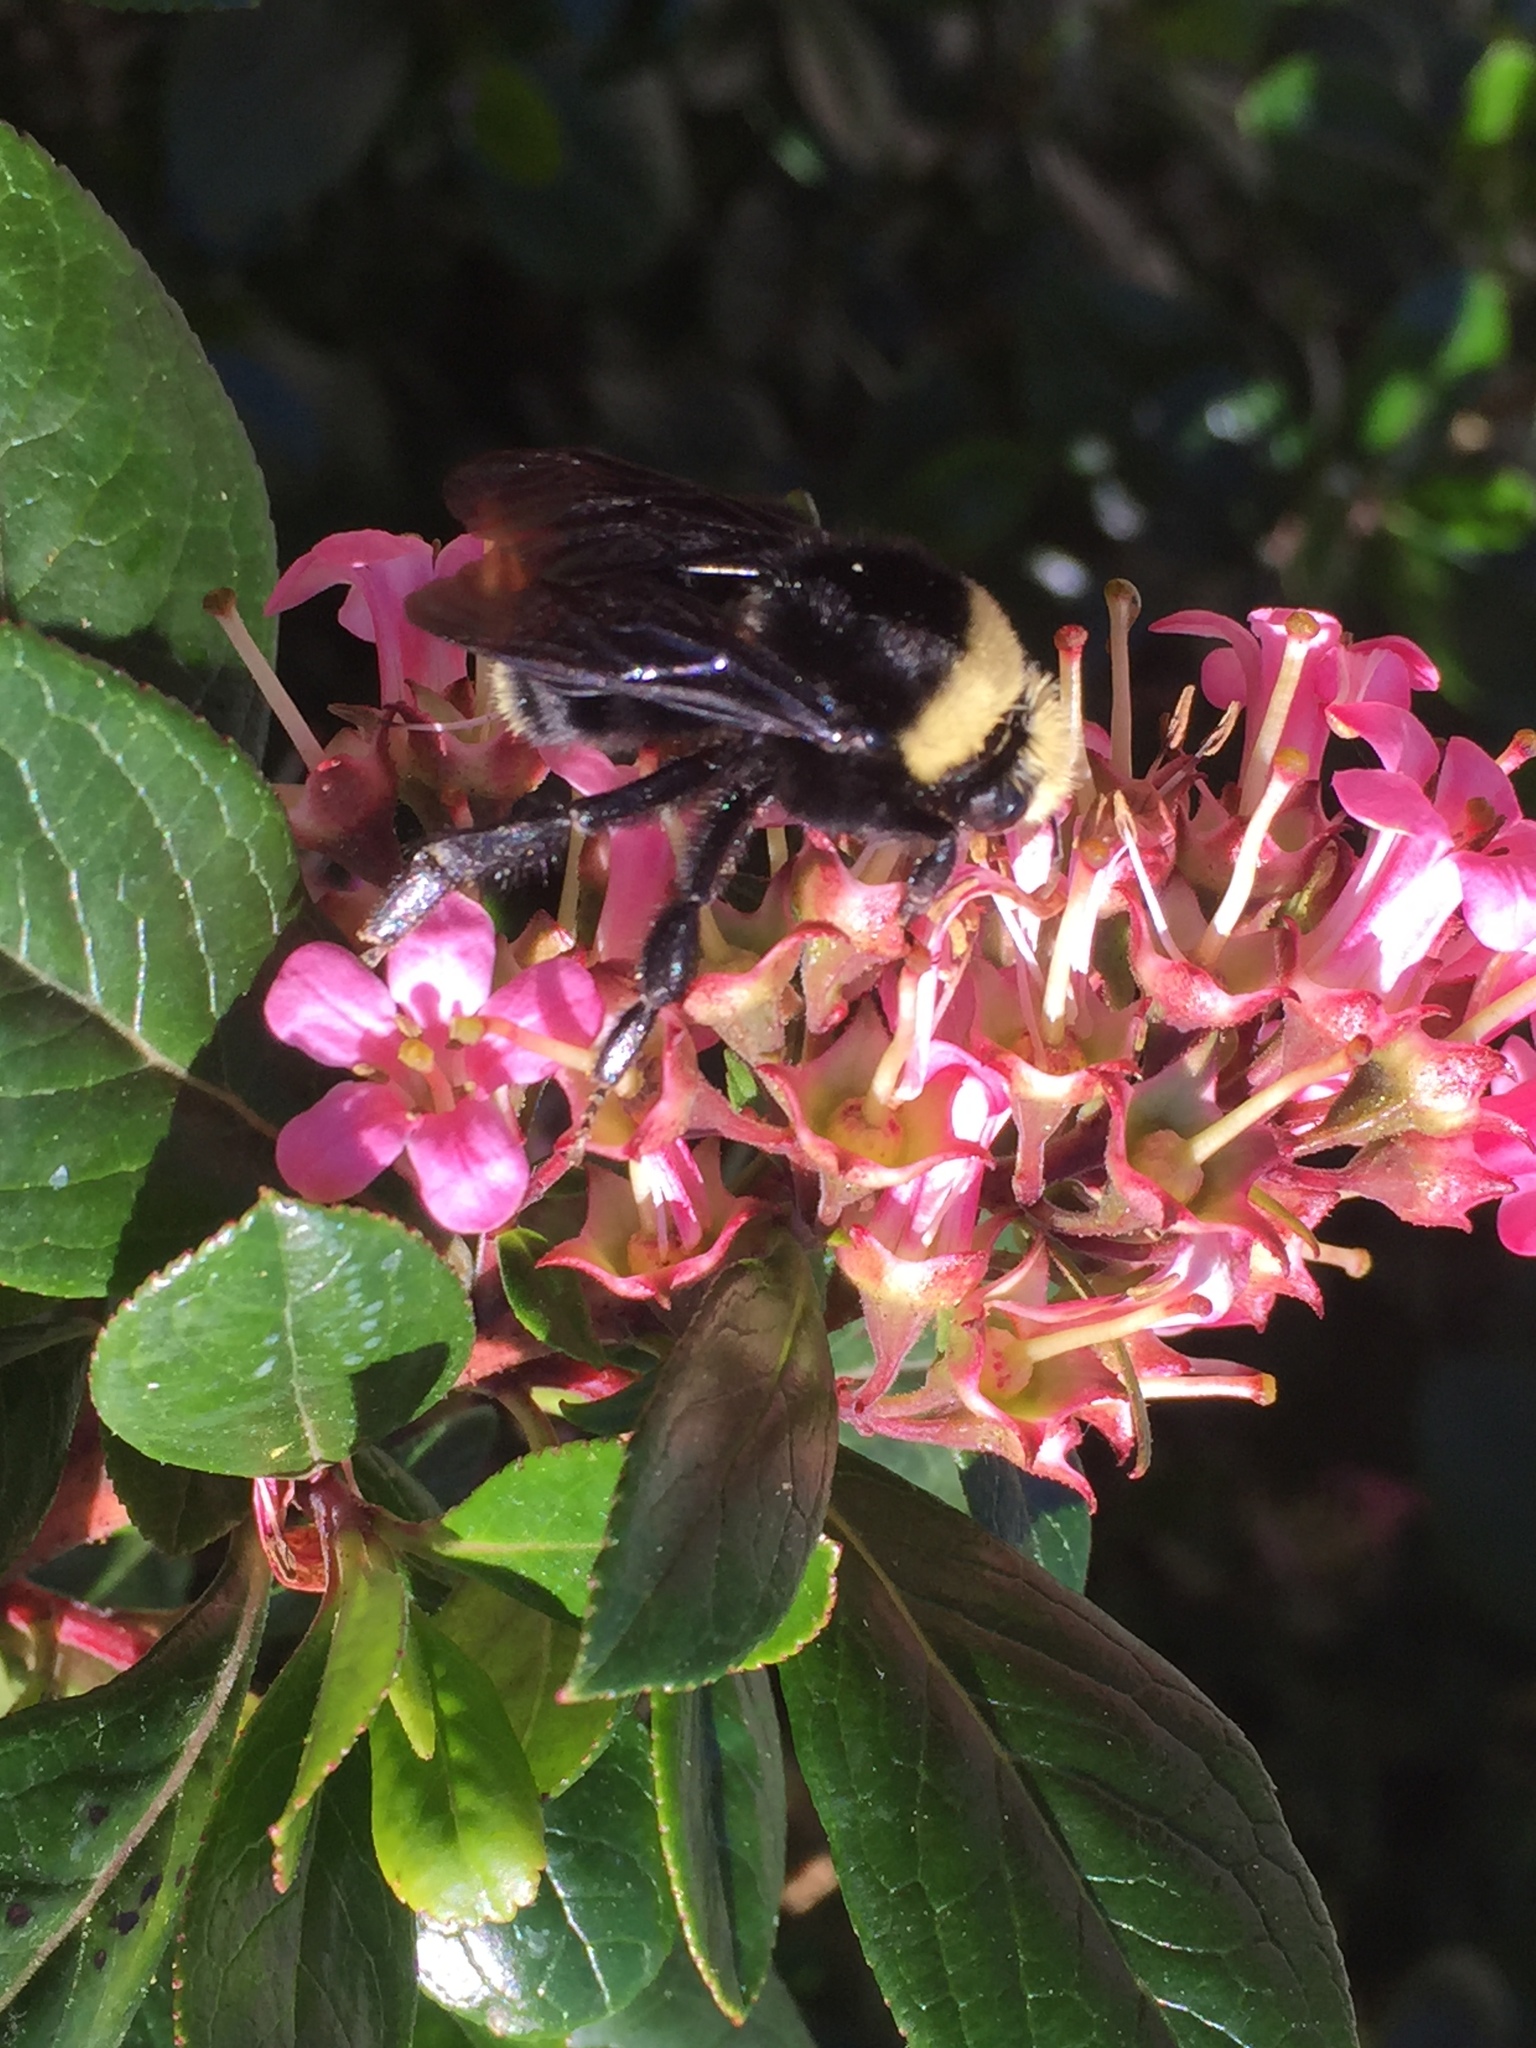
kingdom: Animalia
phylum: Arthropoda
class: Insecta
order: Hymenoptera
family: Apidae
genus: Pyrobombus
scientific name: Pyrobombus
